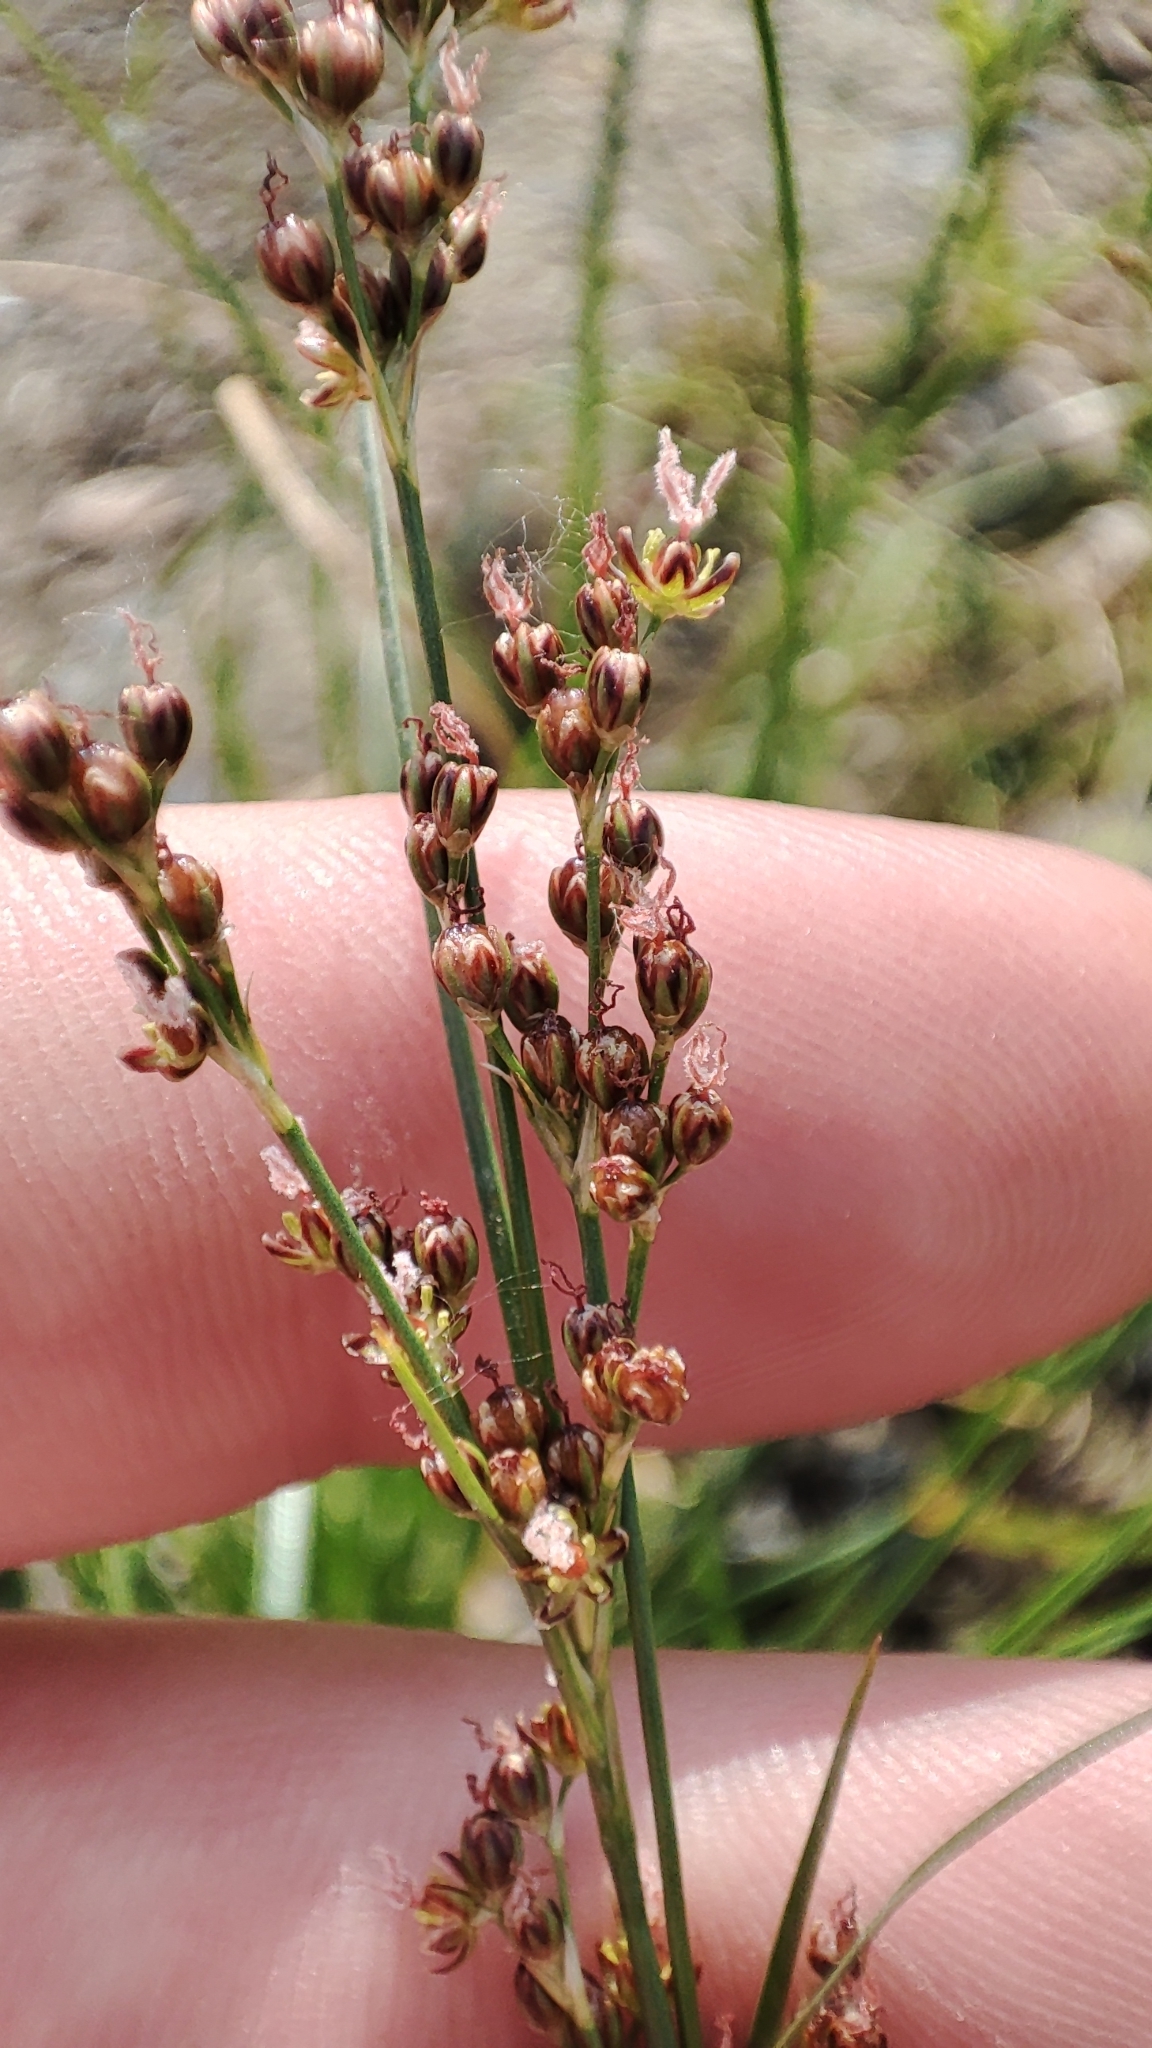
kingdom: Plantae
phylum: Tracheophyta
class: Liliopsida
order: Poales
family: Juncaceae
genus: Juncus
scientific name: Juncus compressus
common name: Round-fruited rush
